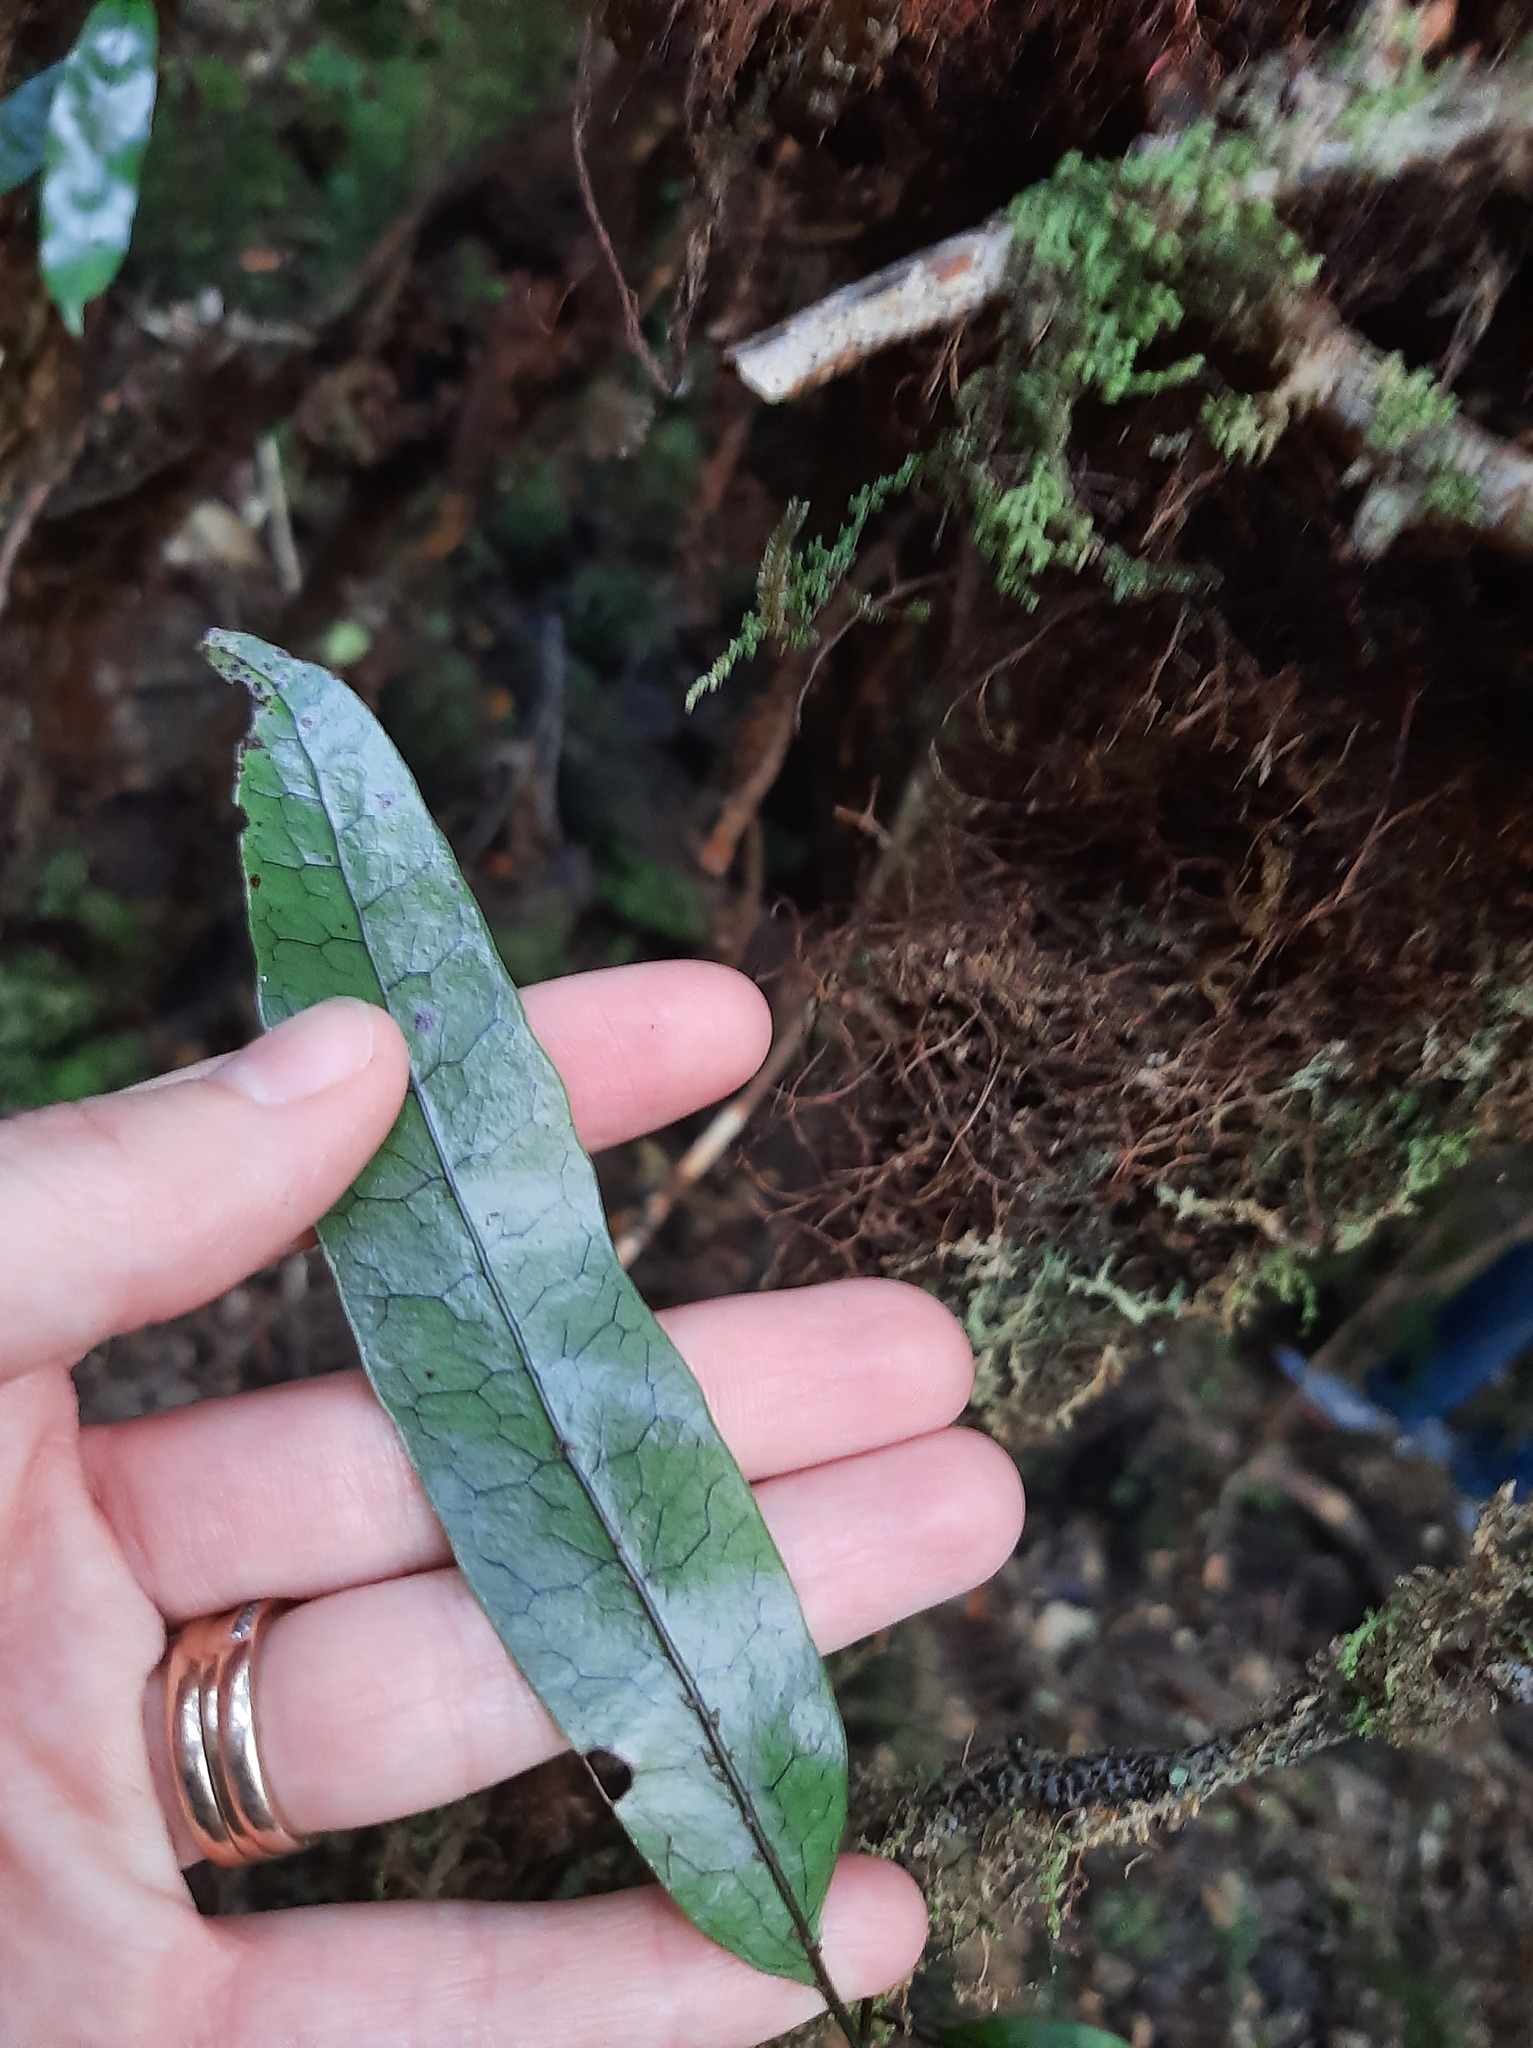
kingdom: Plantae
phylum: Tracheophyta
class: Polypodiopsida
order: Polypodiales
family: Polypodiaceae
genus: Lecanopteris
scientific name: Lecanopteris pustulata
